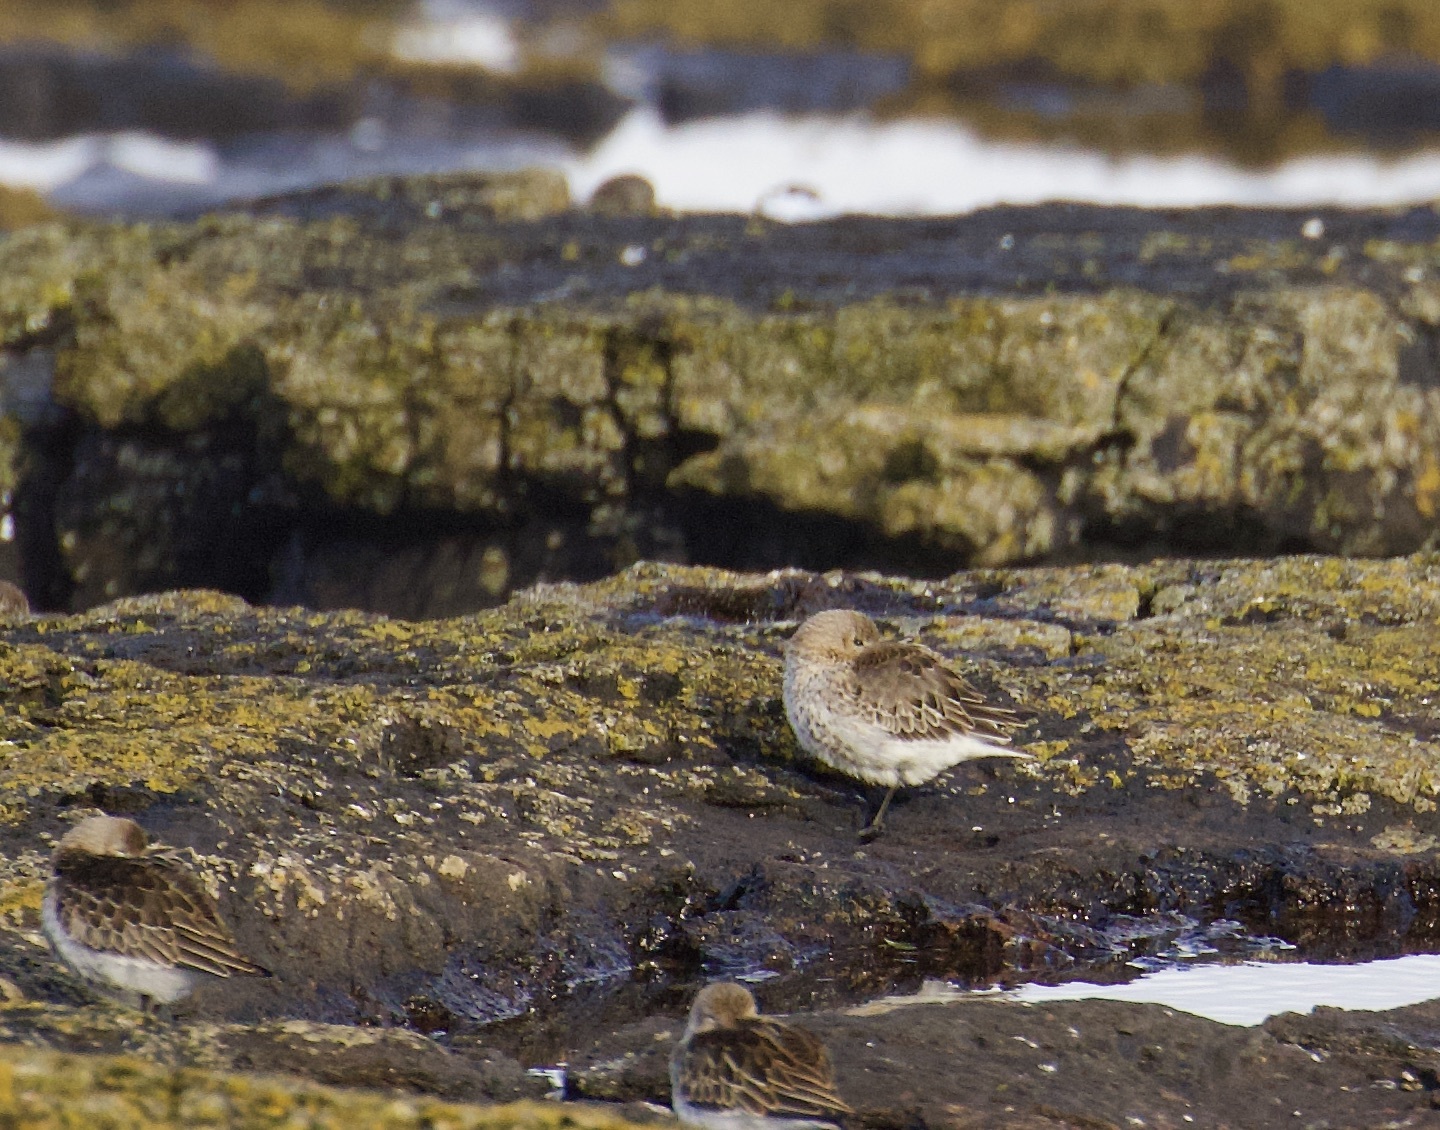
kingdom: Animalia
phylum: Chordata
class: Aves
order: Charadriiformes
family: Scolopacidae
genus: Calidris
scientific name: Calidris alpina
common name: Dunlin
